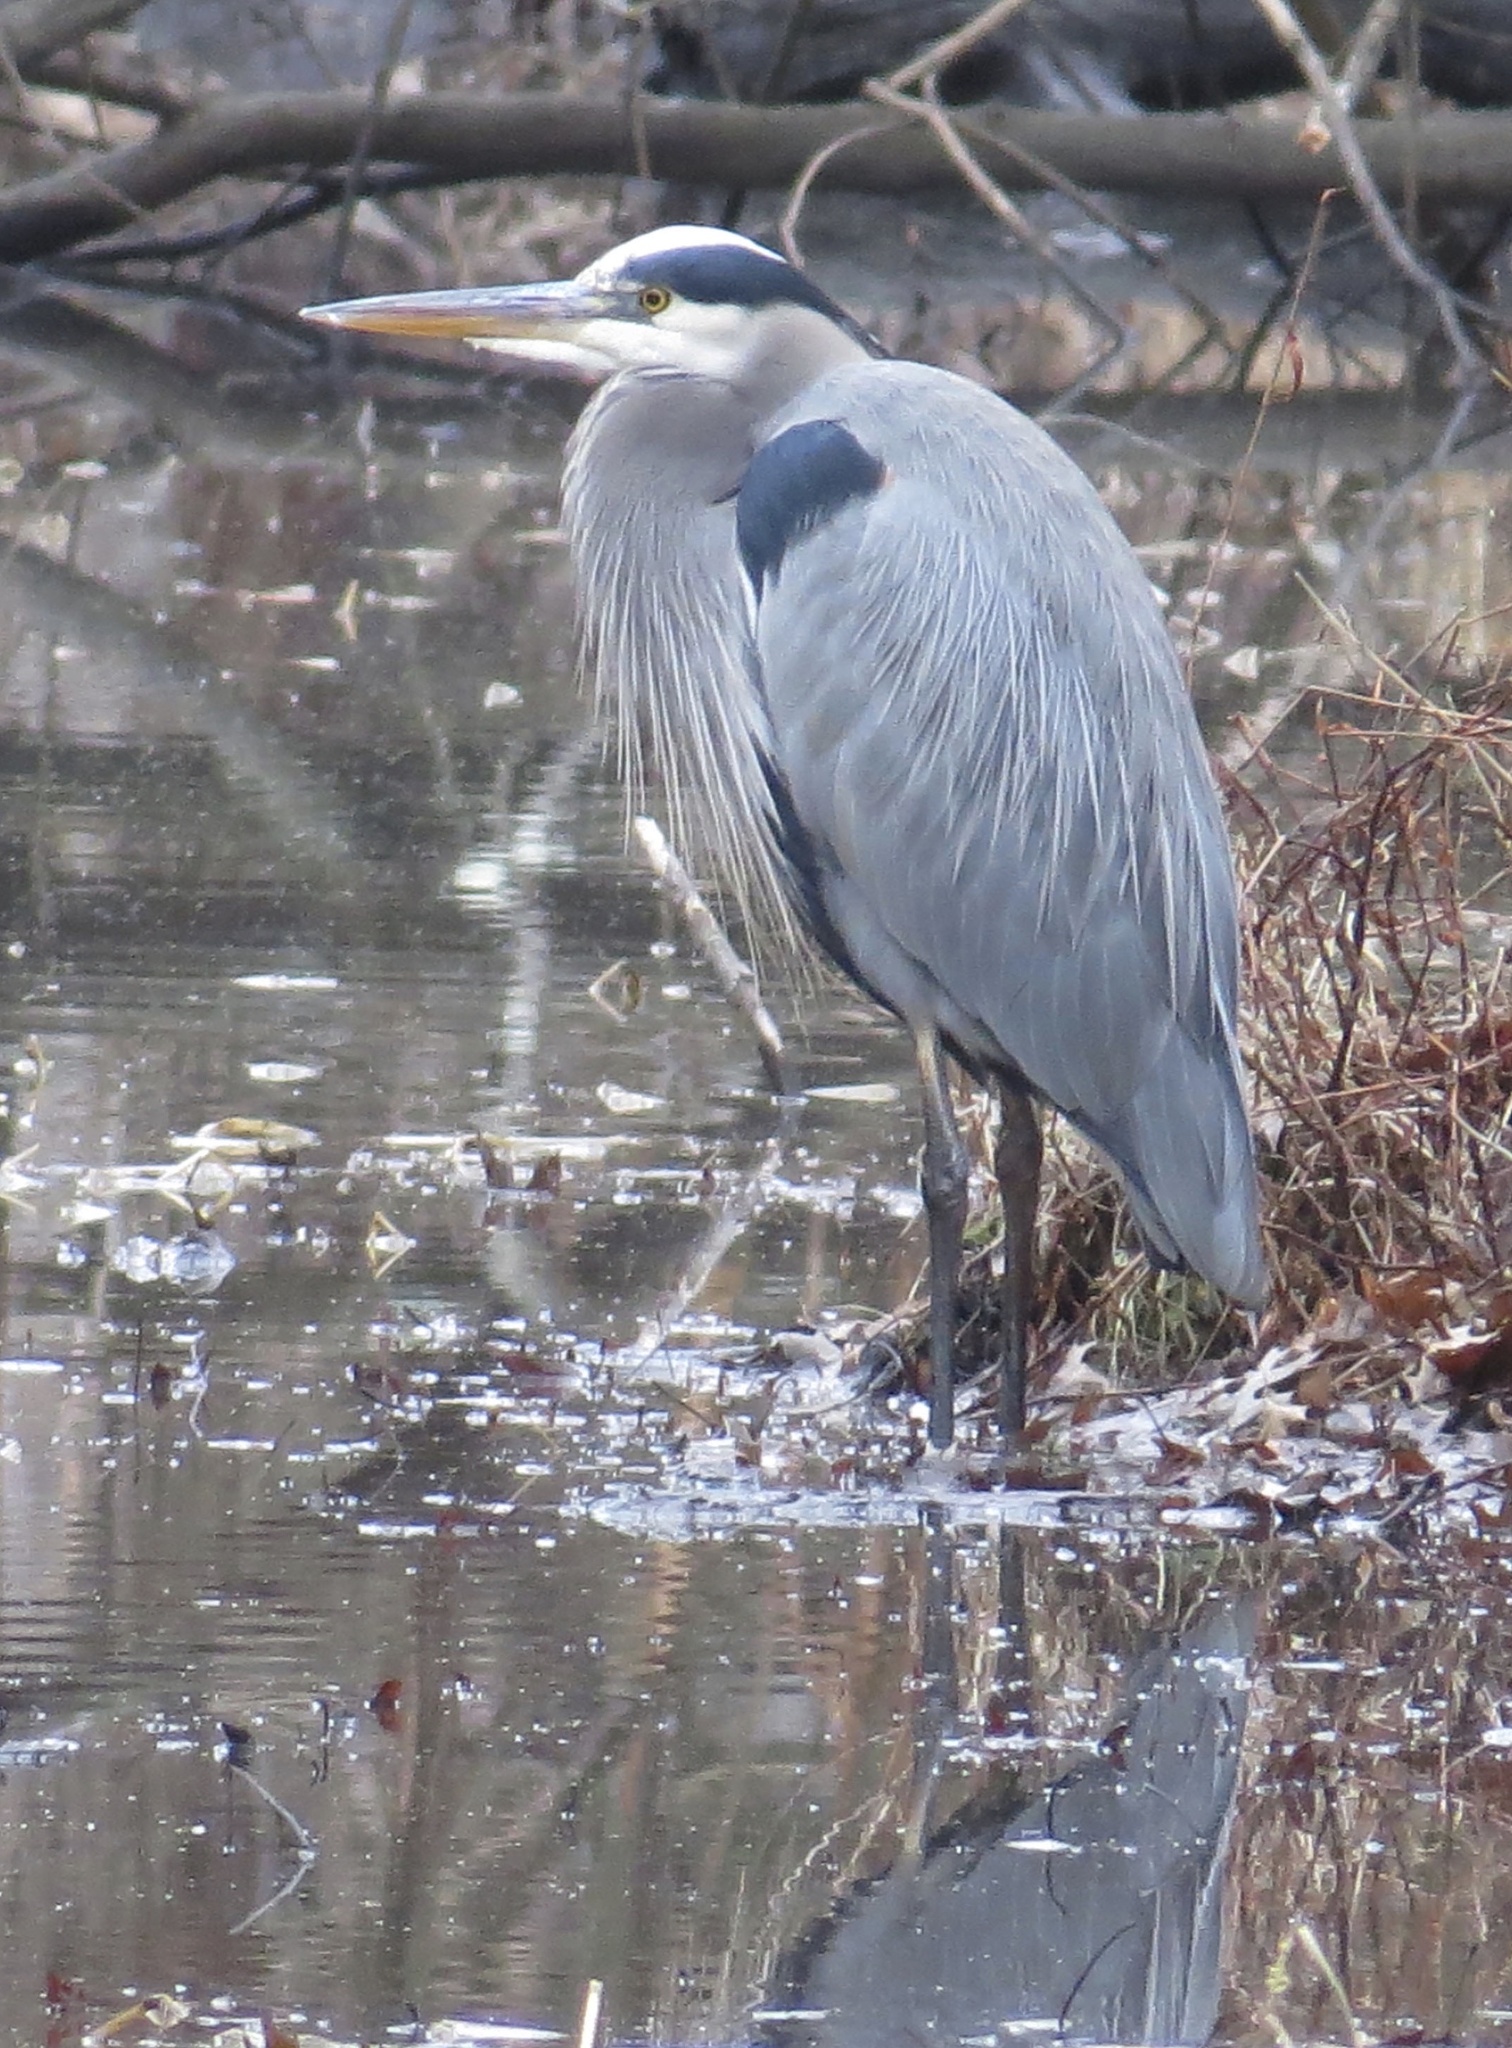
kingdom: Animalia
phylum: Chordata
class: Aves
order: Pelecaniformes
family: Ardeidae
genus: Ardea
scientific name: Ardea herodias
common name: Great blue heron
